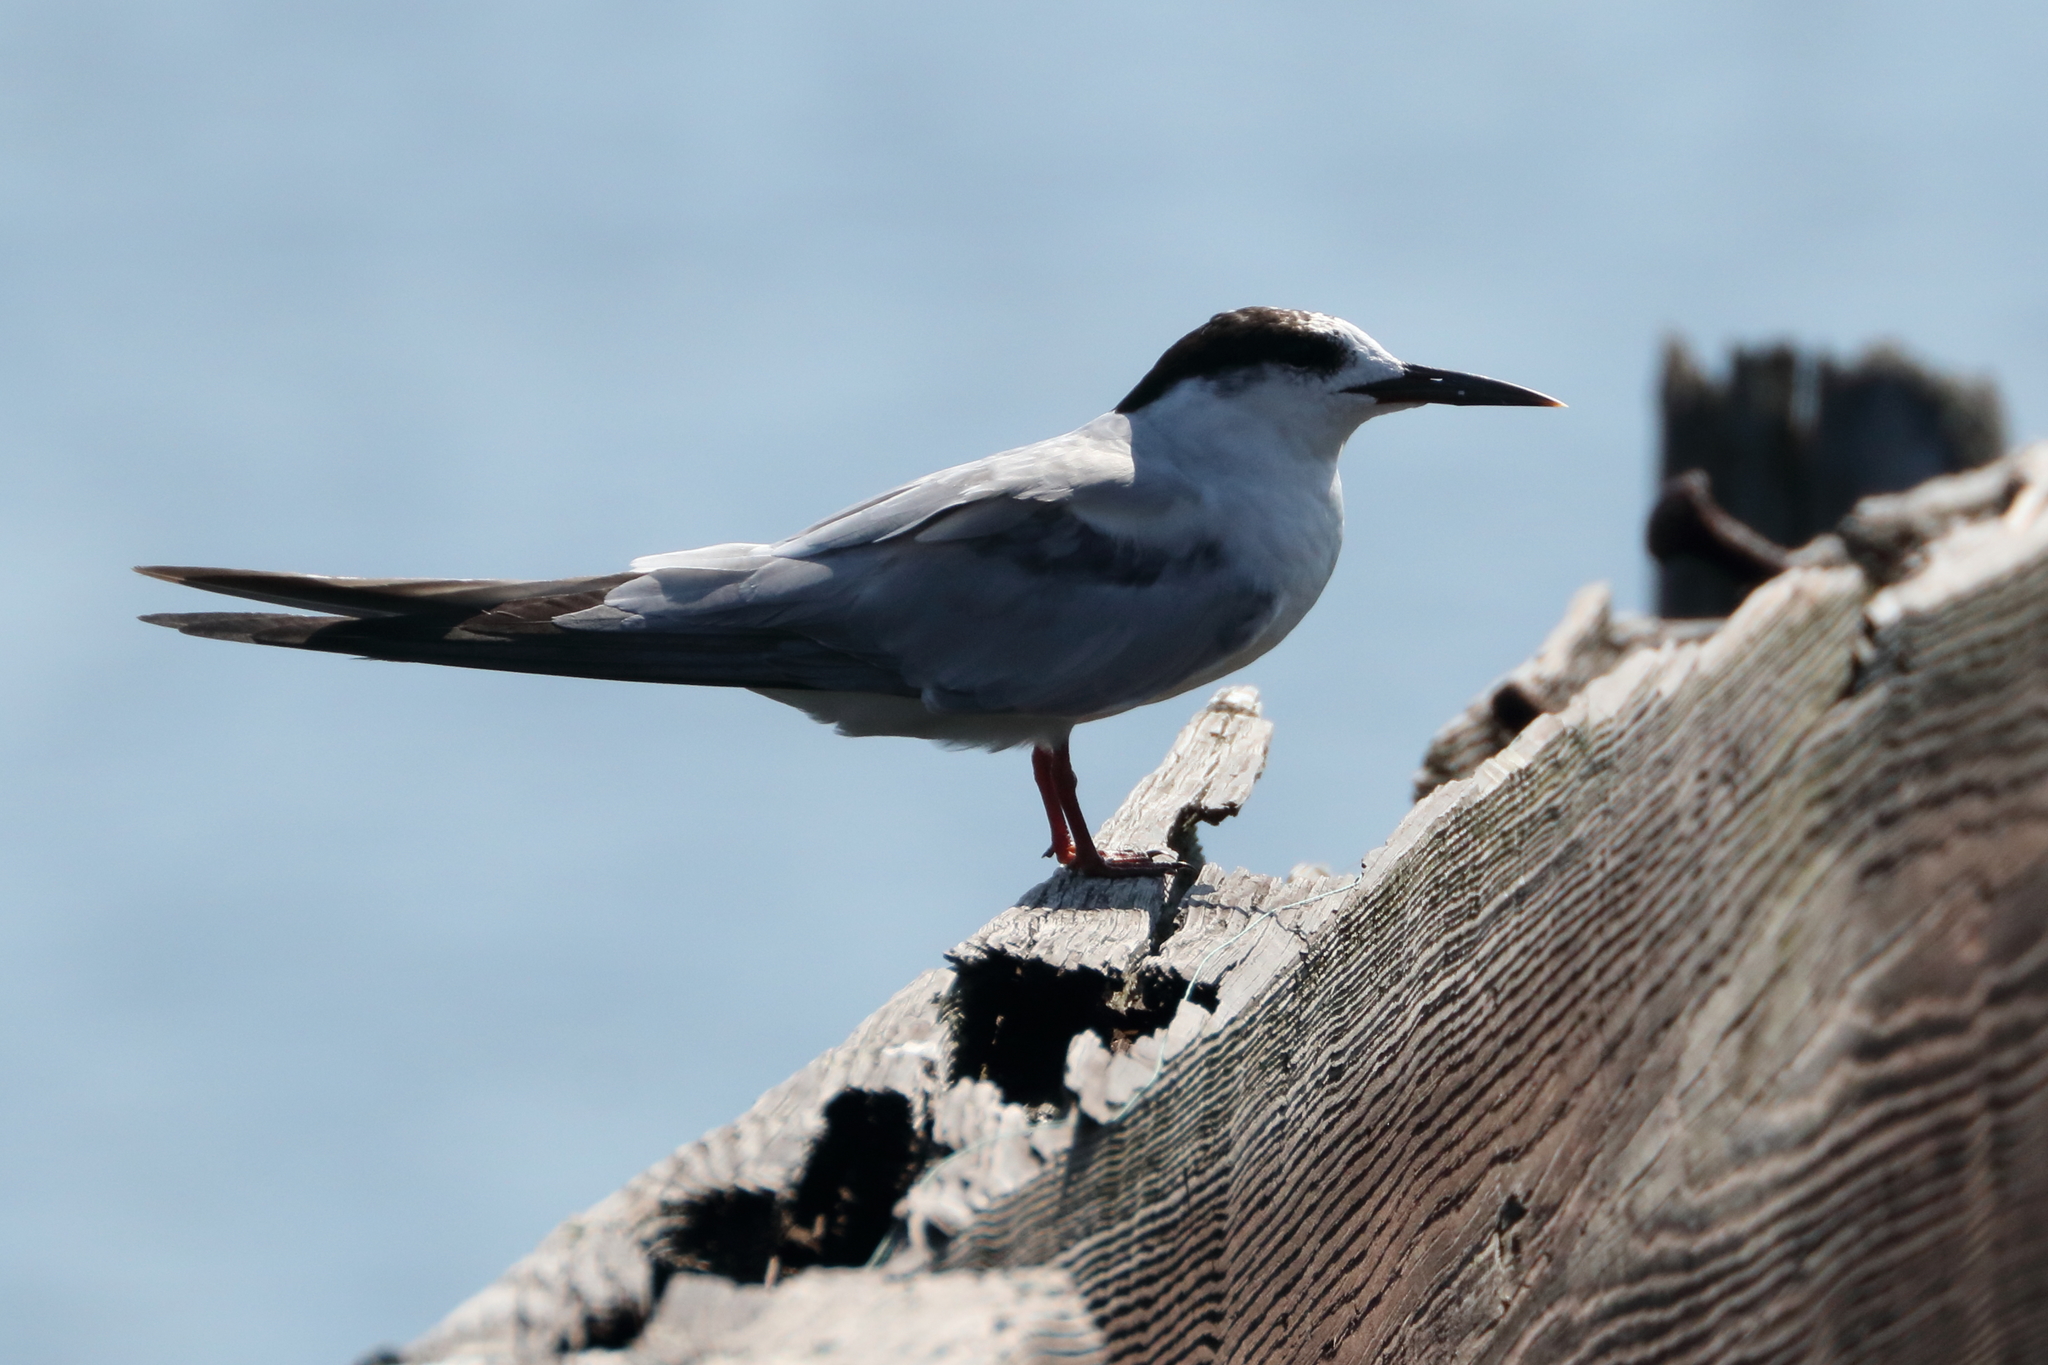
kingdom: Animalia
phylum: Chordata
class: Aves
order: Charadriiformes
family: Laridae
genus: Sterna
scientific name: Sterna hirundo
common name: Common tern
